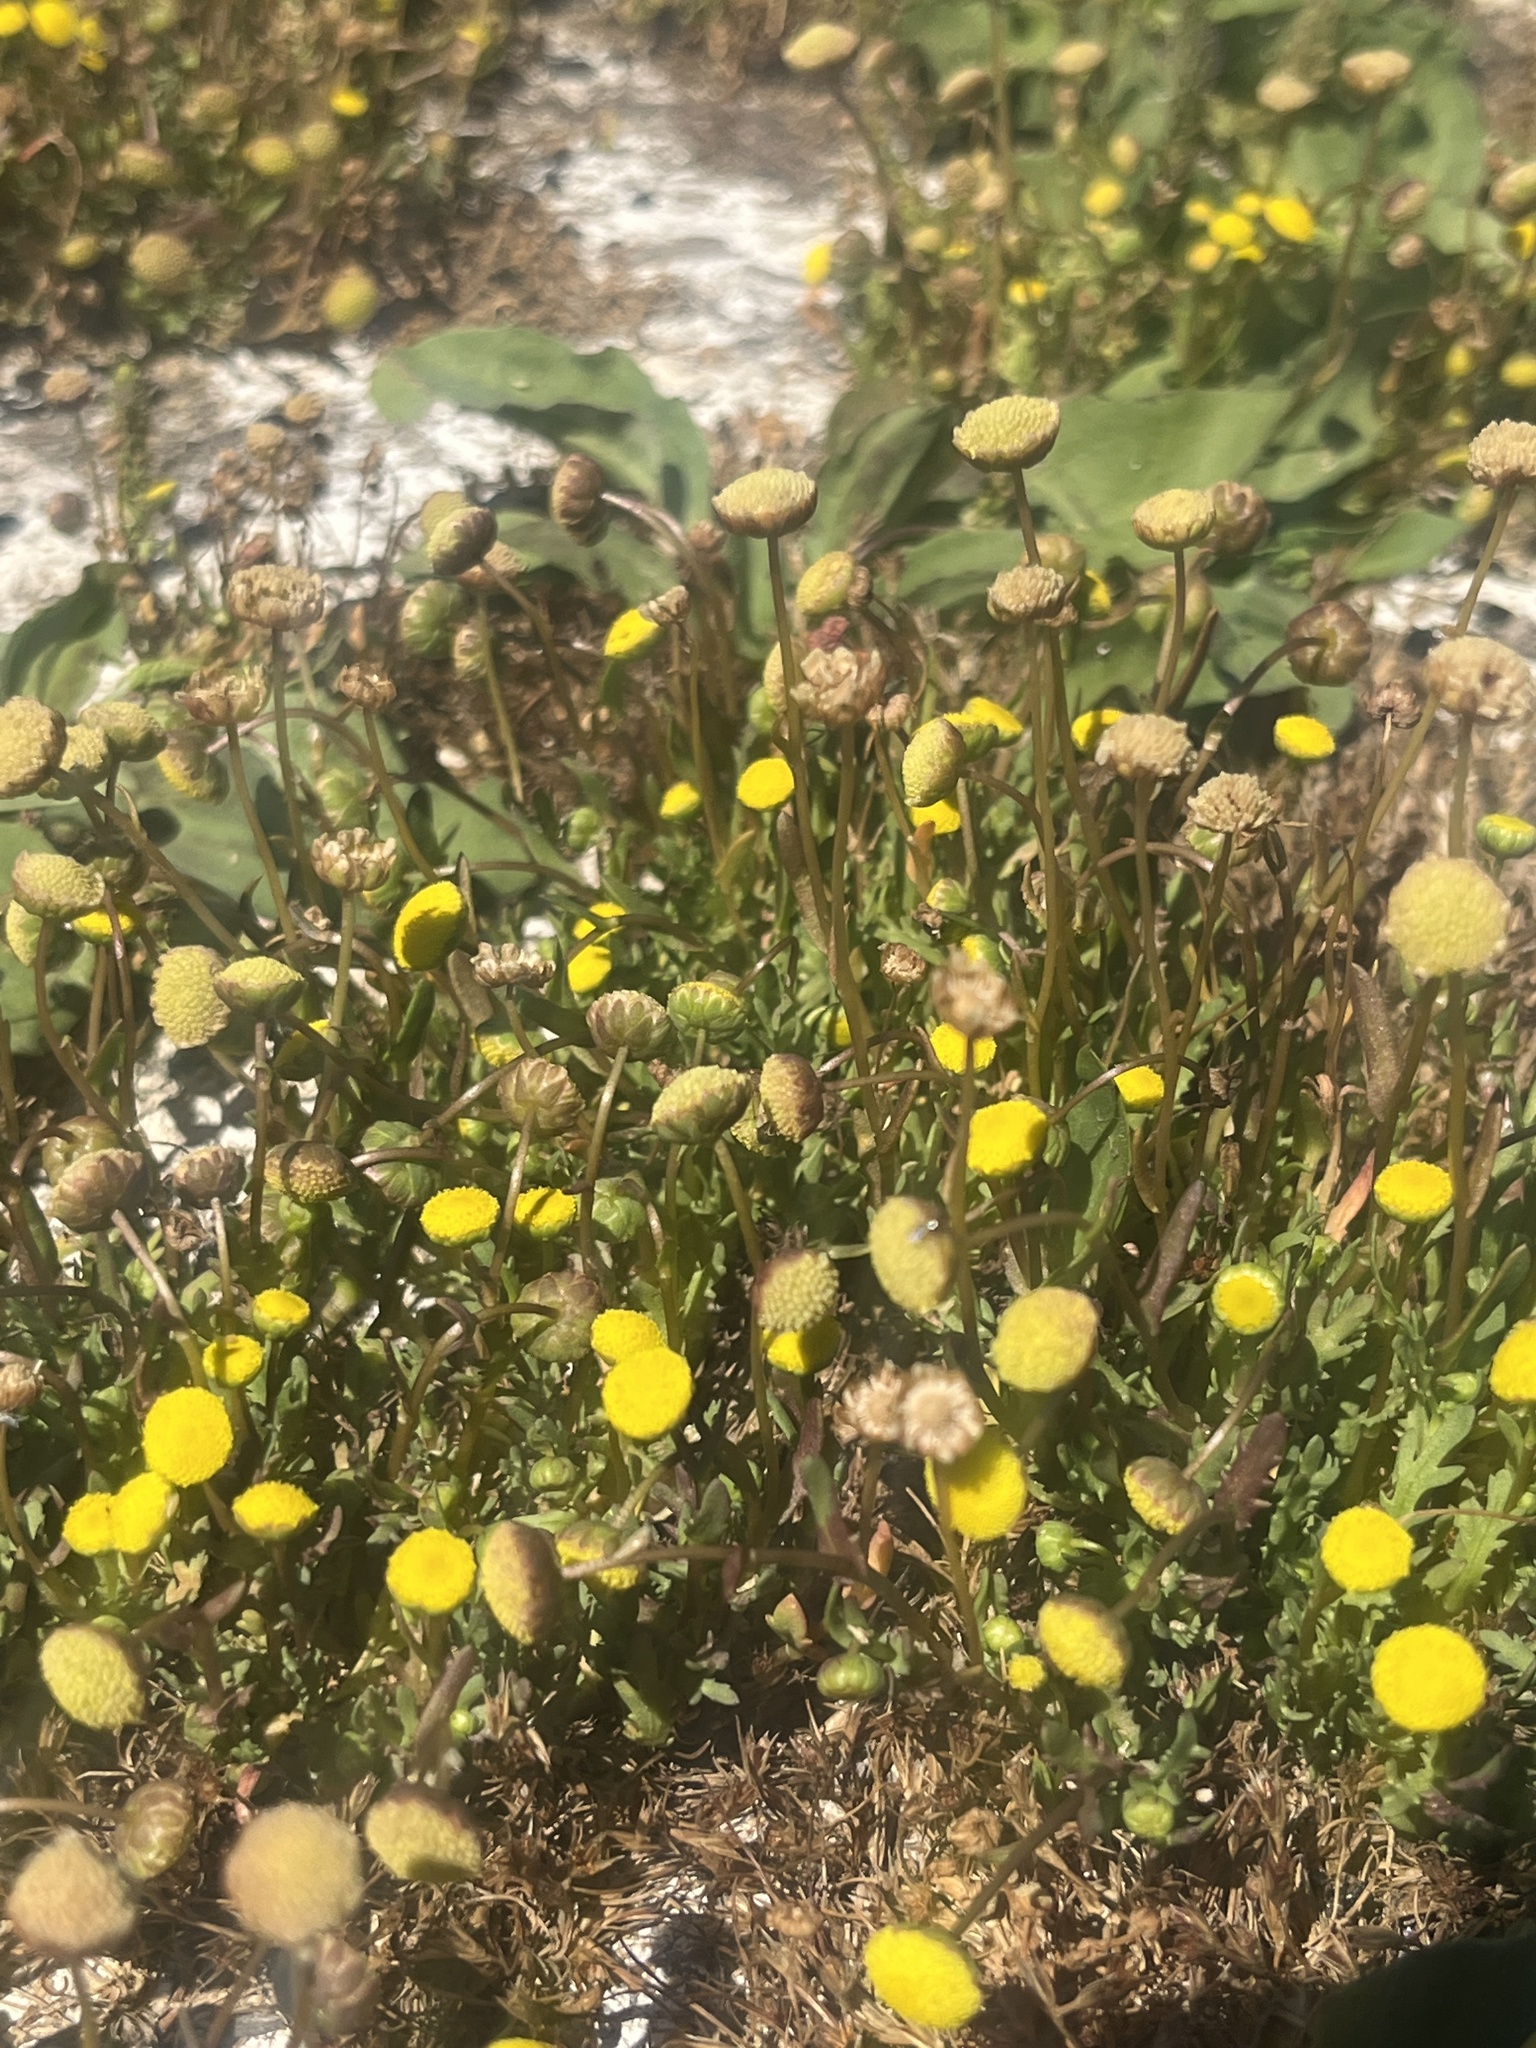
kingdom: Plantae
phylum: Tracheophyta
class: Magnoliopsida
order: Asterales
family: Asteraceae
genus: Cotula
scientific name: Cotula coronopifolia
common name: Buttonweed
